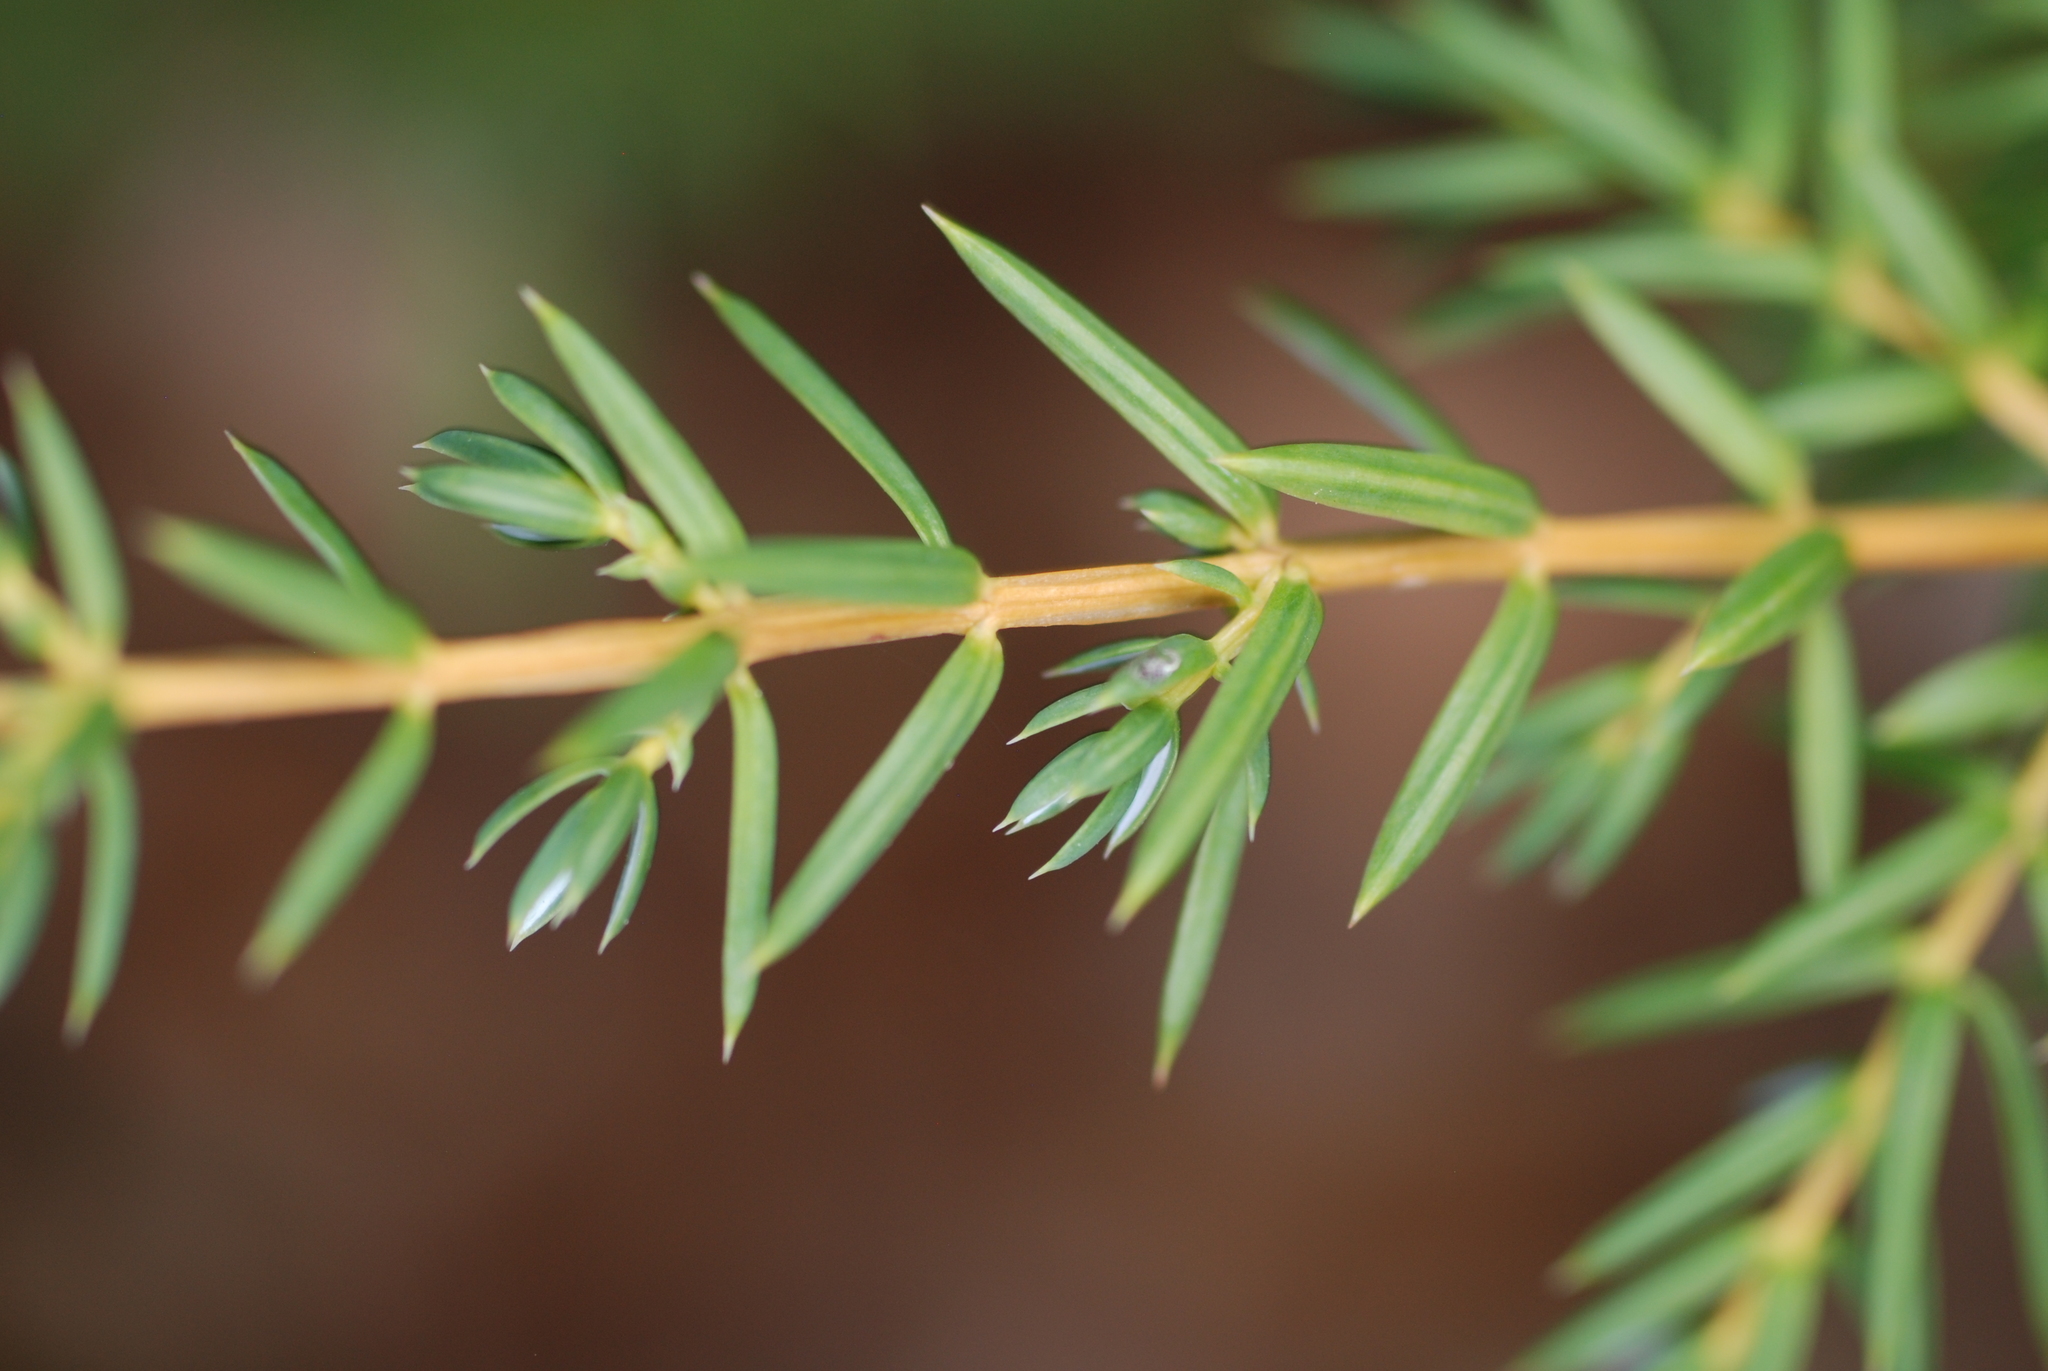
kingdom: Plantae
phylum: Tracheophyta
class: Pinopsida
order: Pinales
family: Cupressaceae
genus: Juniperus
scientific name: Juniperus communis
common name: Common juniper
